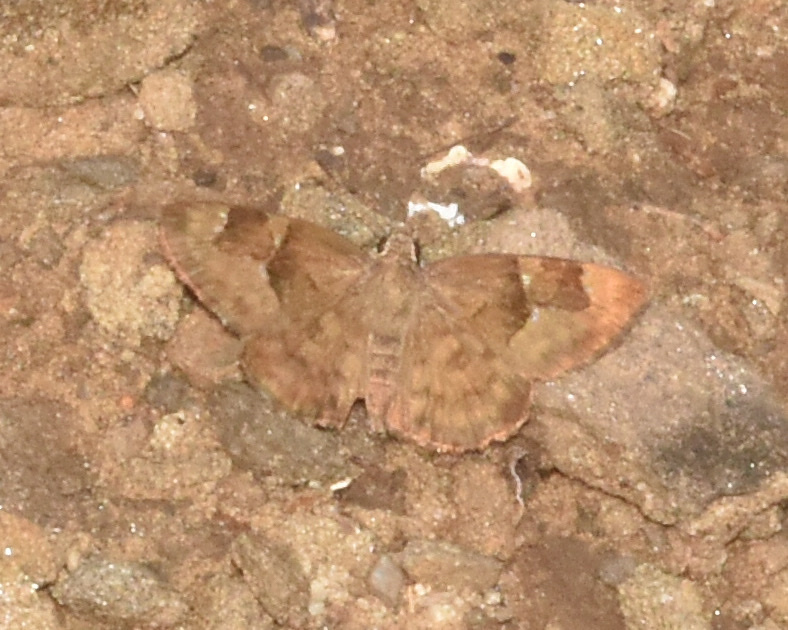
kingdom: Animalia
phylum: Arthropoda
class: Insecta
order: Lepidoptera
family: Hesperiidae
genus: Sarangesa
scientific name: Sarangesa phidyle
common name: Small elfin
